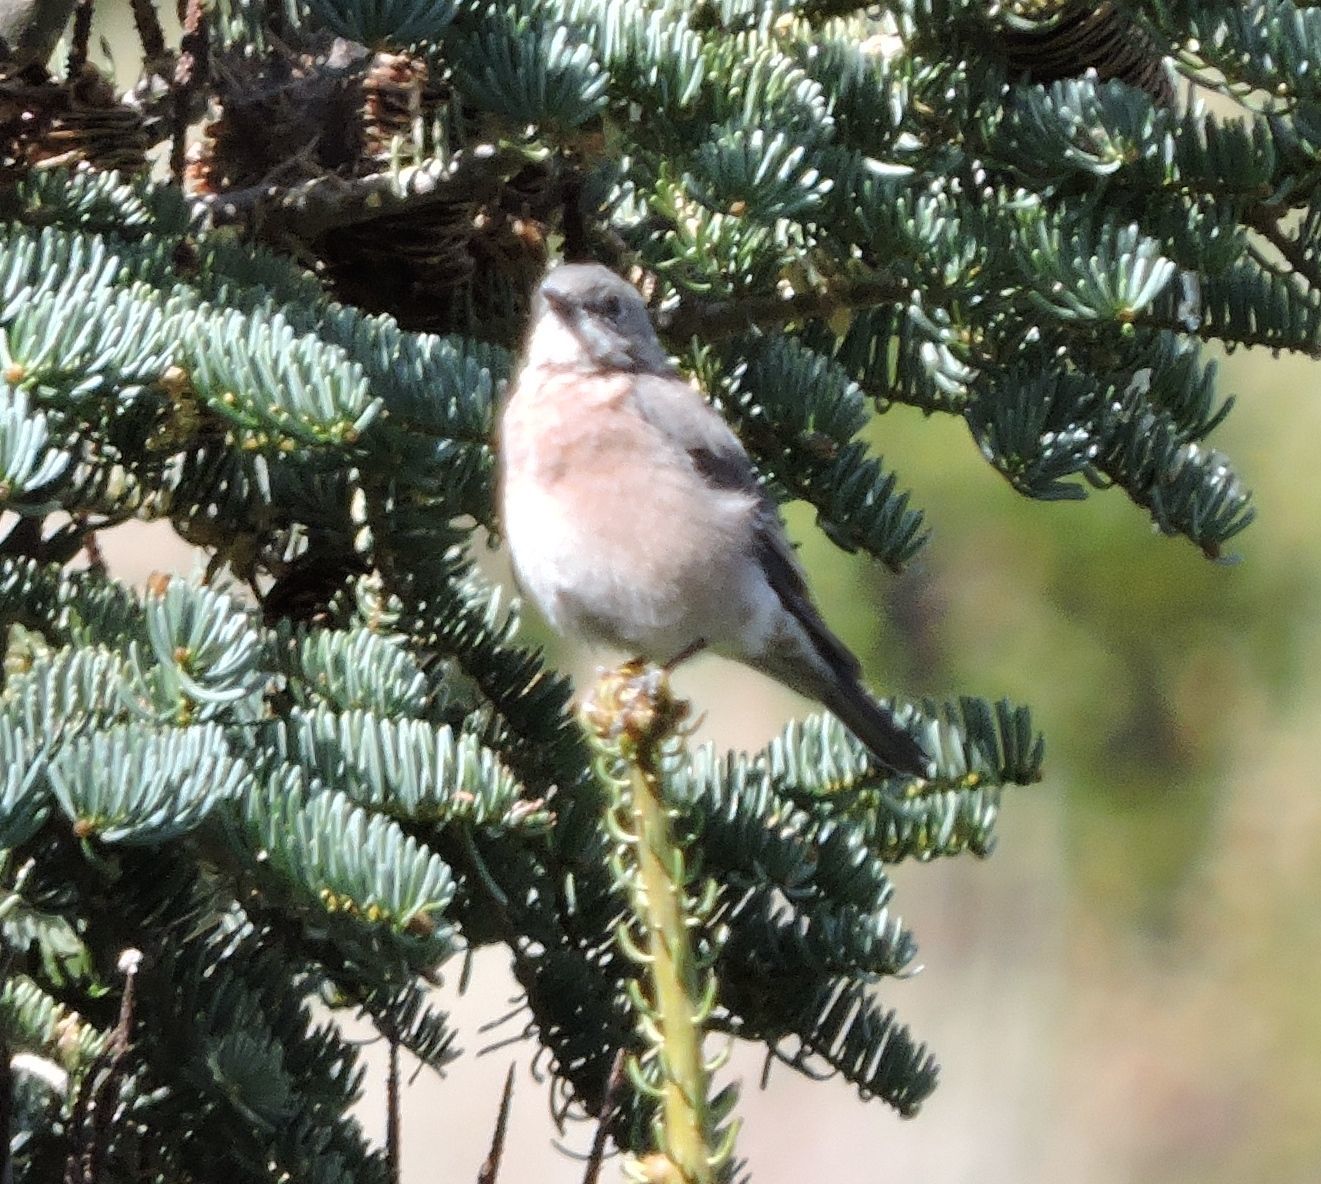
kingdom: Animalia
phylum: Chordata
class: Aves
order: Passeriformes
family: Turdidae
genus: Sialia
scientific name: Sialia mexicana
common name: Western bluebird
